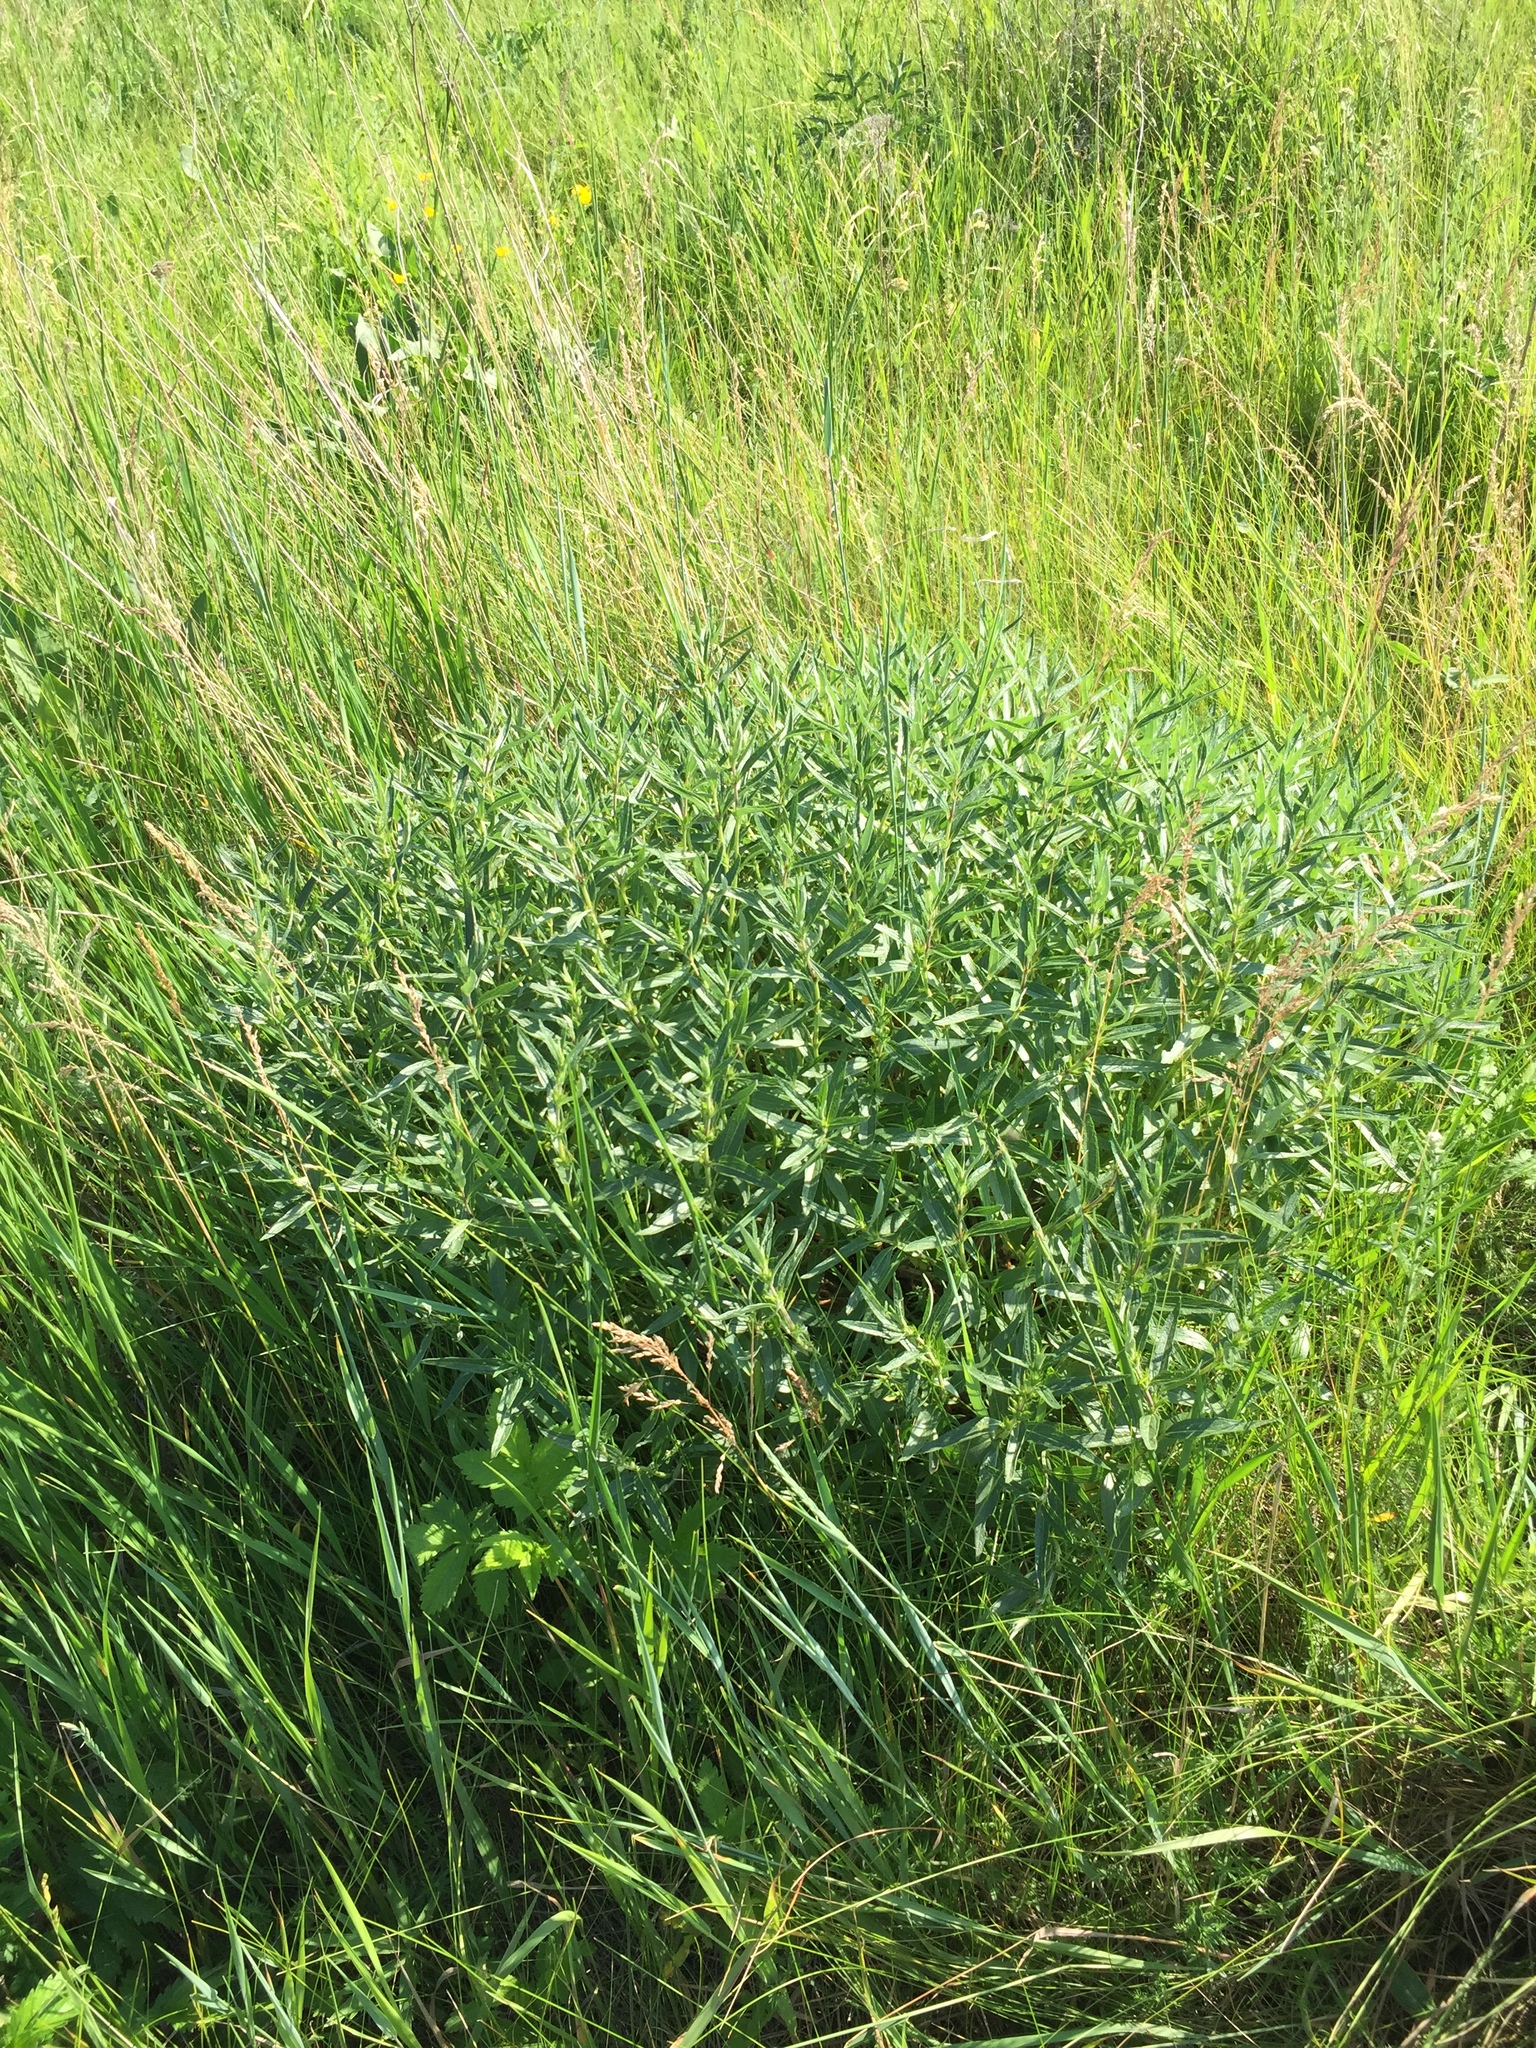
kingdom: Plantae
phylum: Tracheophyta
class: Magnoliopsida
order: Lamiales
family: Lamiaceae
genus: Phlomis
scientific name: Phlomis herba-venti
